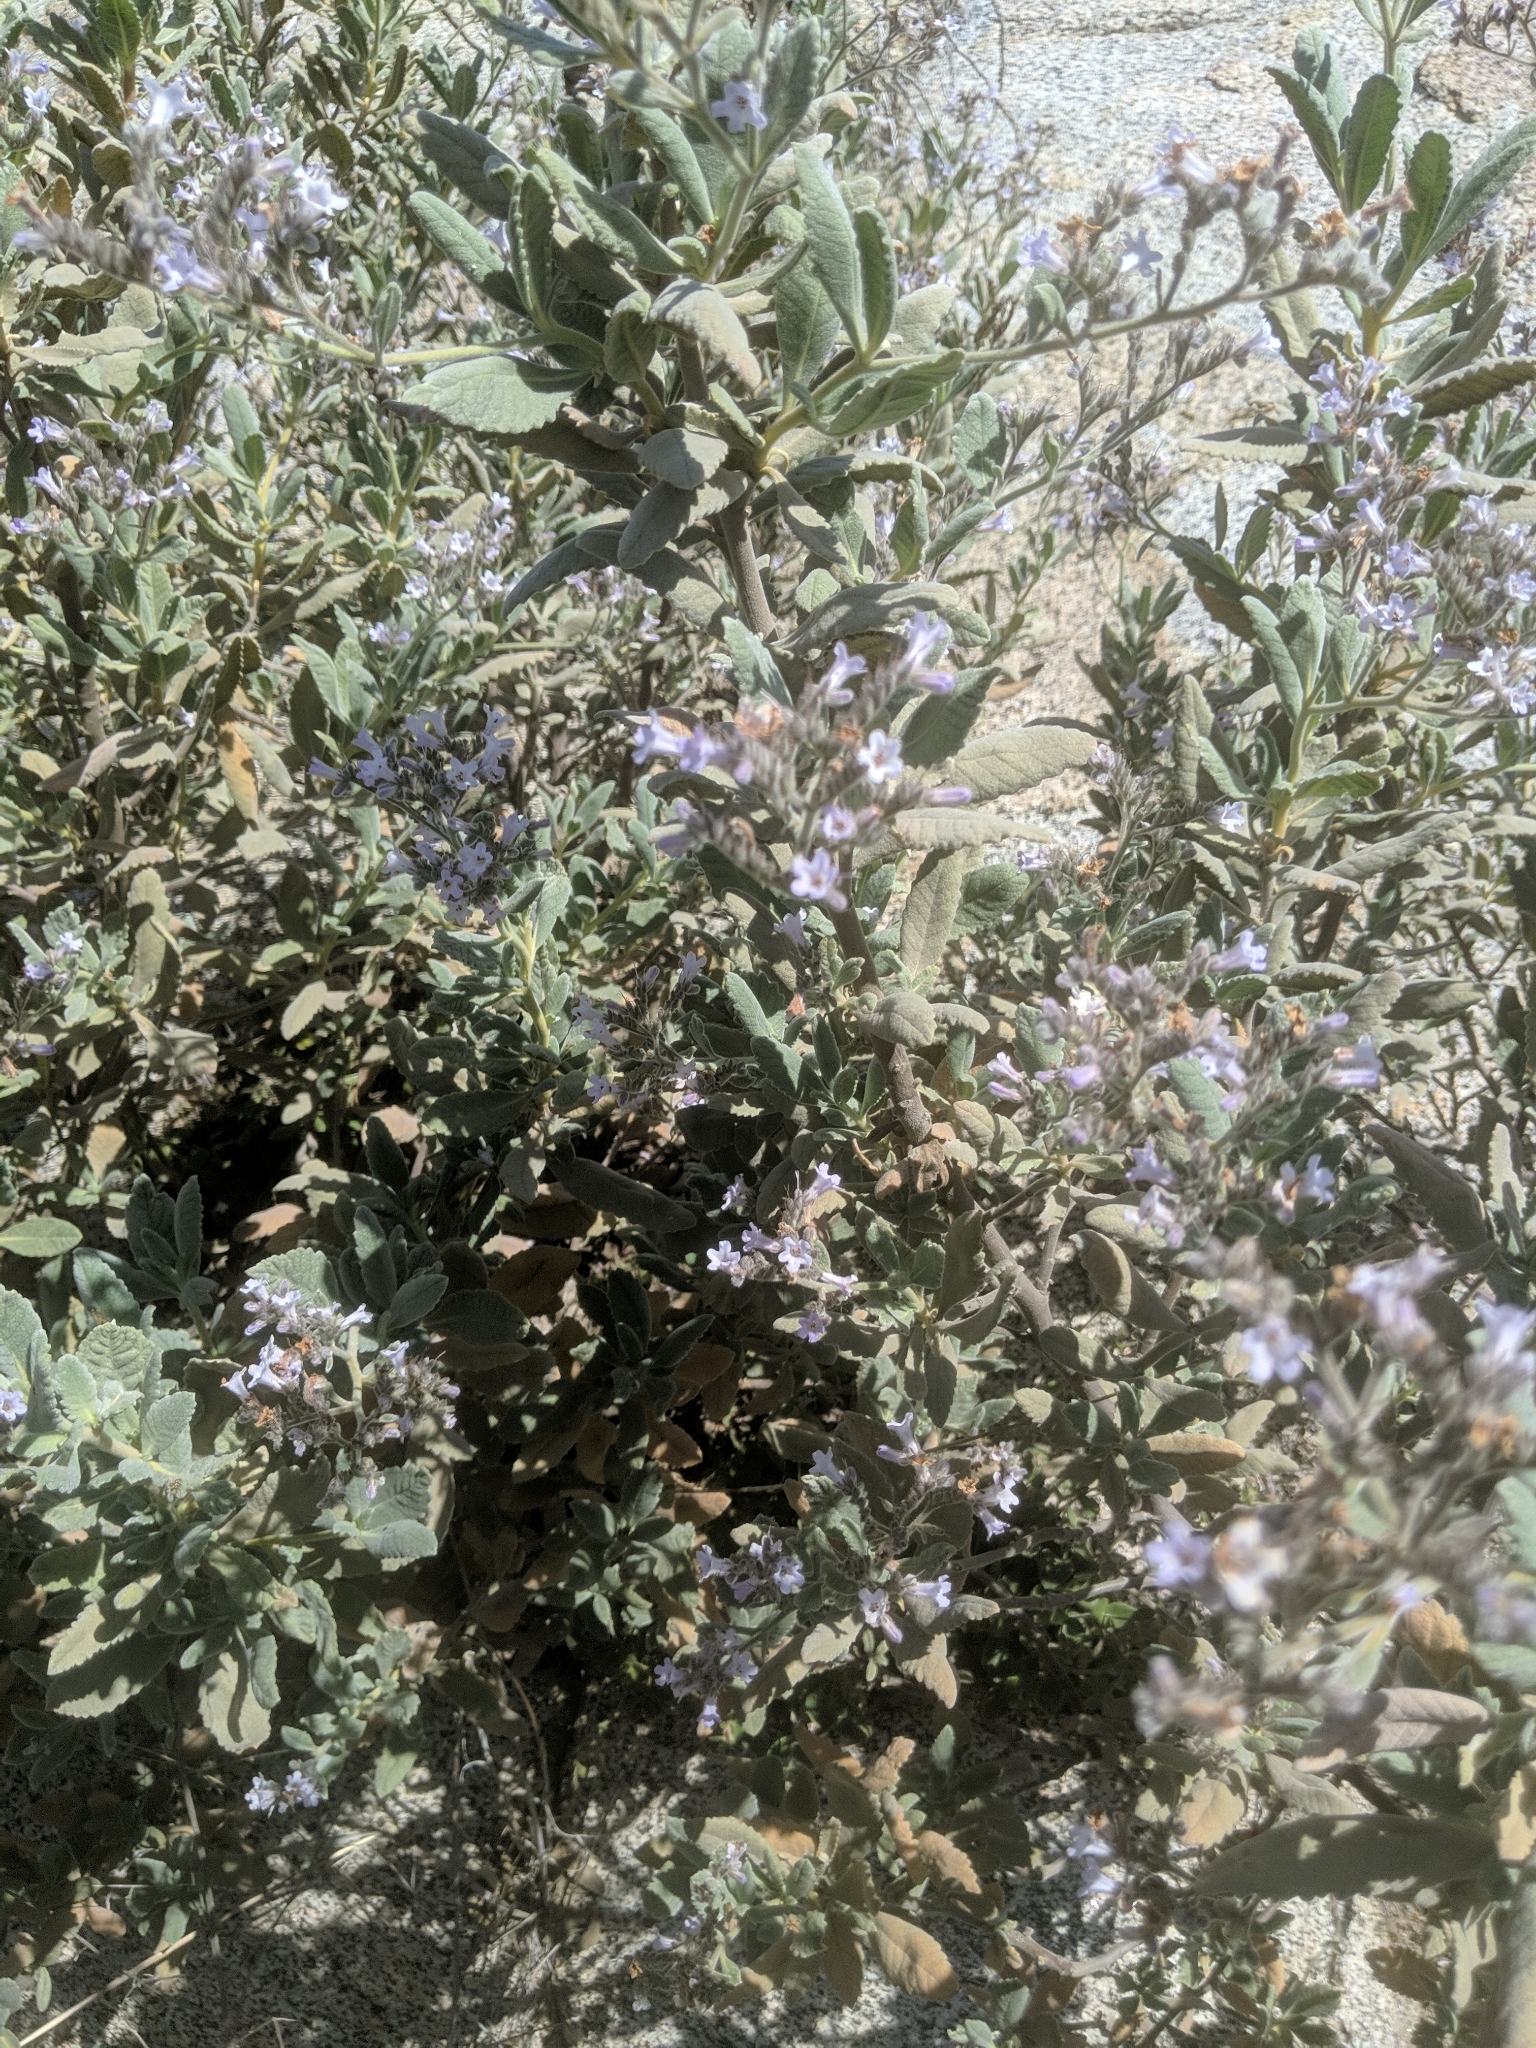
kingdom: Plantae
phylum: Tracheophyta
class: Magnoliopsida
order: Boraginales
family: Namaceae
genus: Eriodictyon
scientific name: Eriodictyon crassifolium
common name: Thick-leaf yerba-santa
